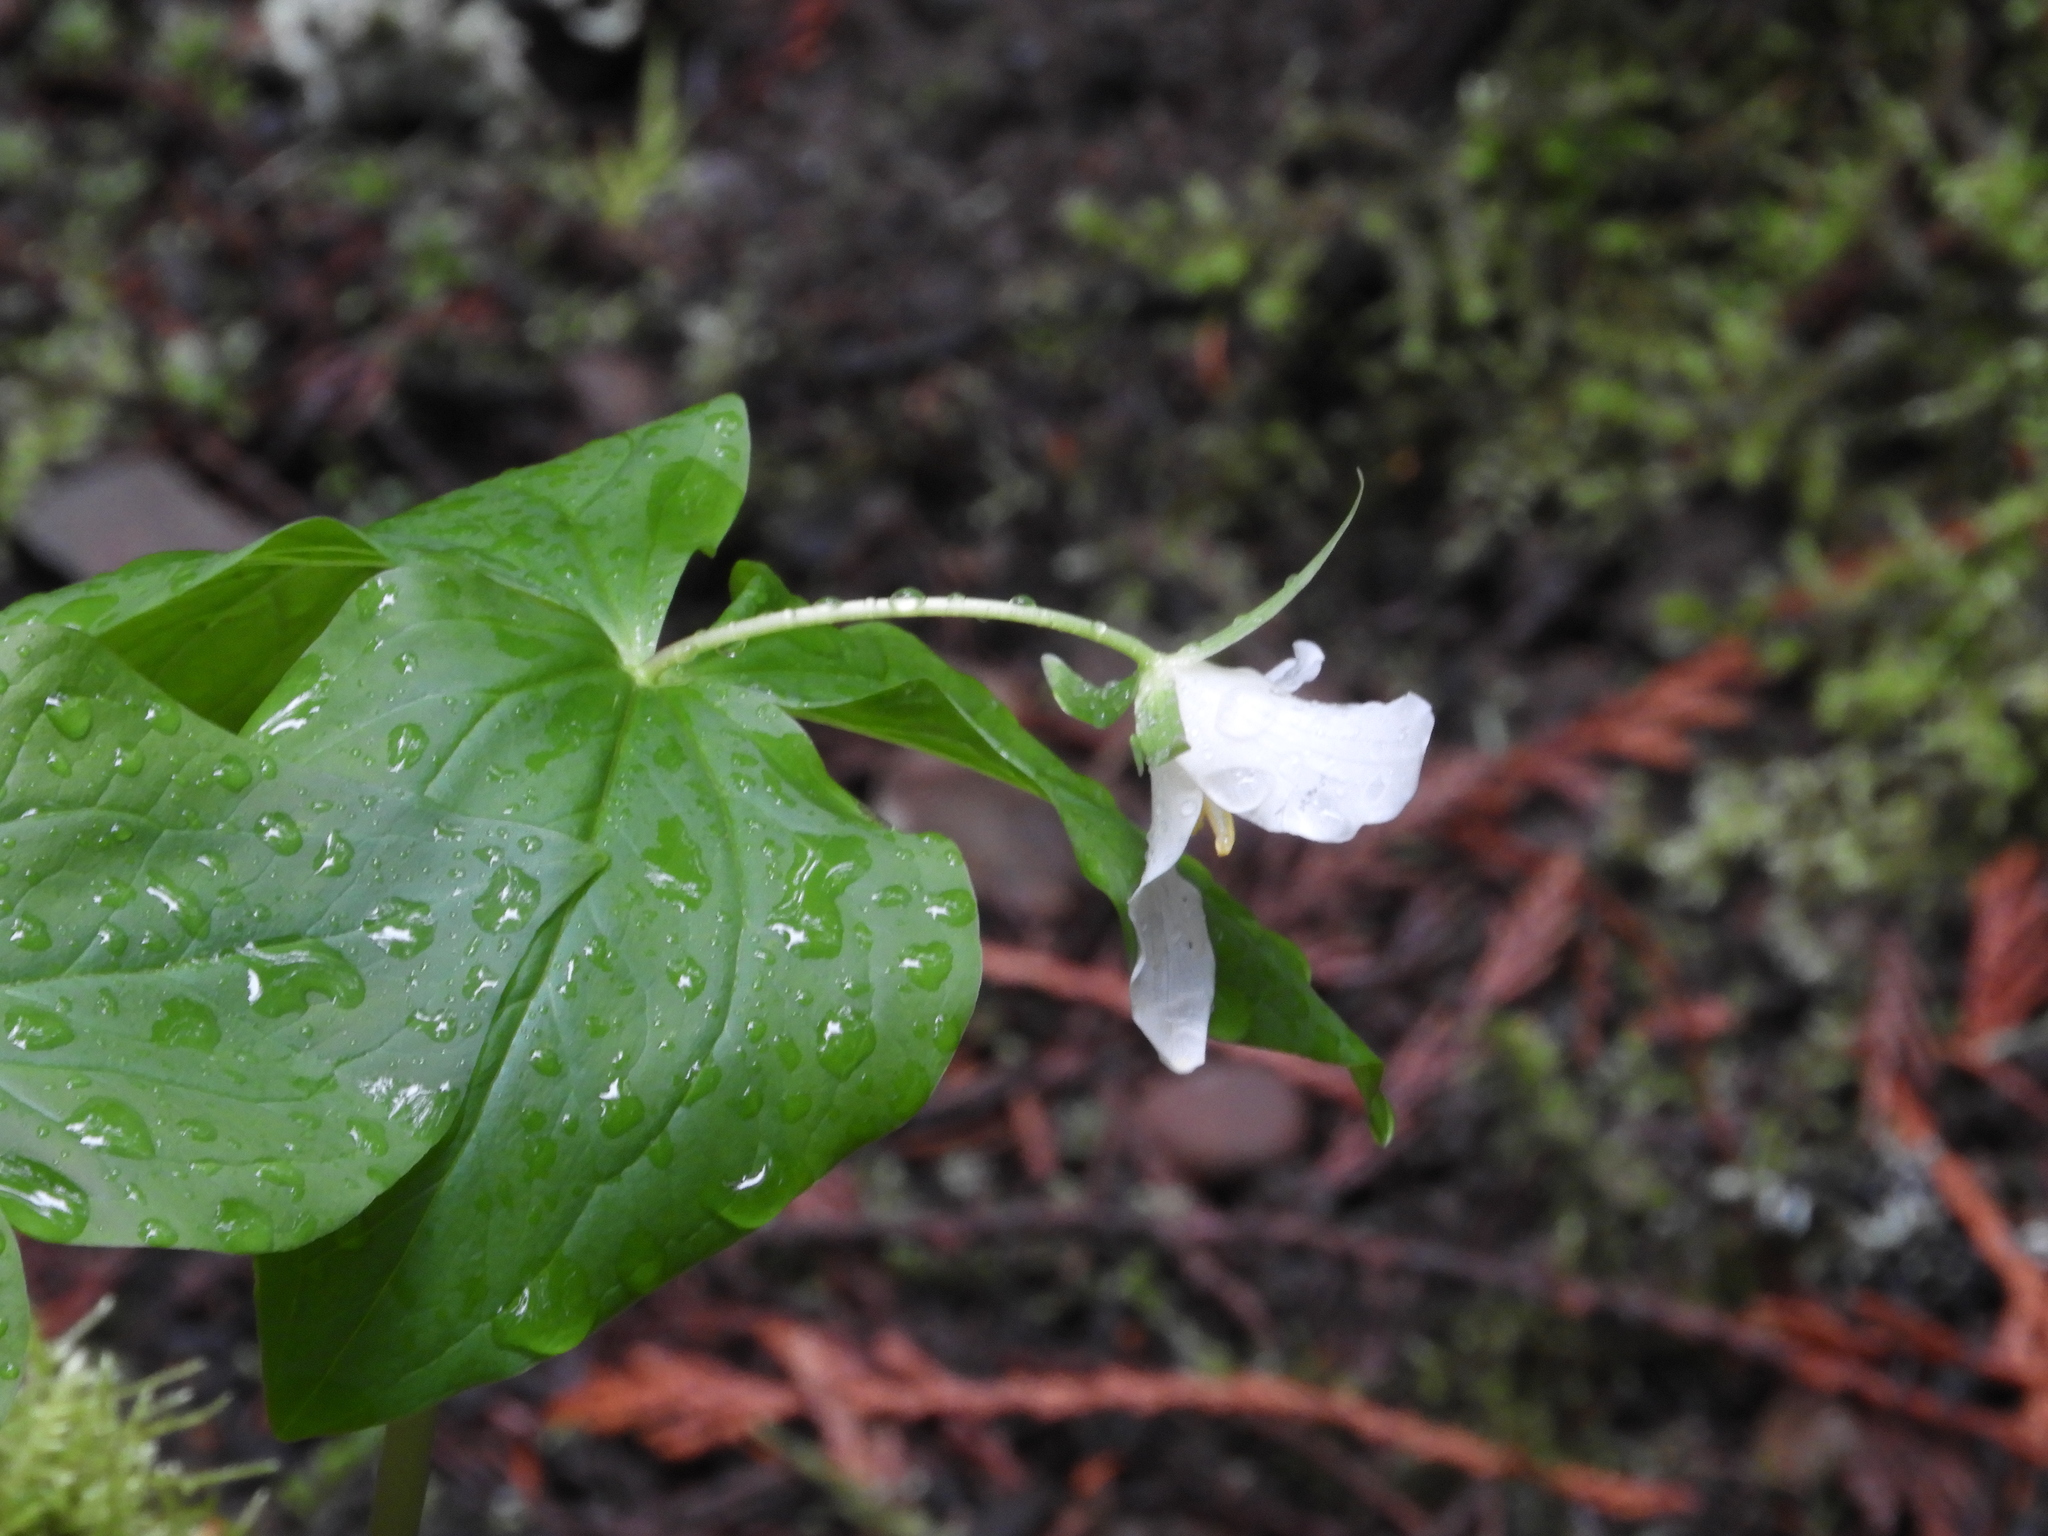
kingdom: Plantae
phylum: Tracheophyta
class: Liliopsida
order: Liliales
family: Melanthiaceae
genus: Trillium
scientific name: Trillium ovatum
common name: Pacific trillium
